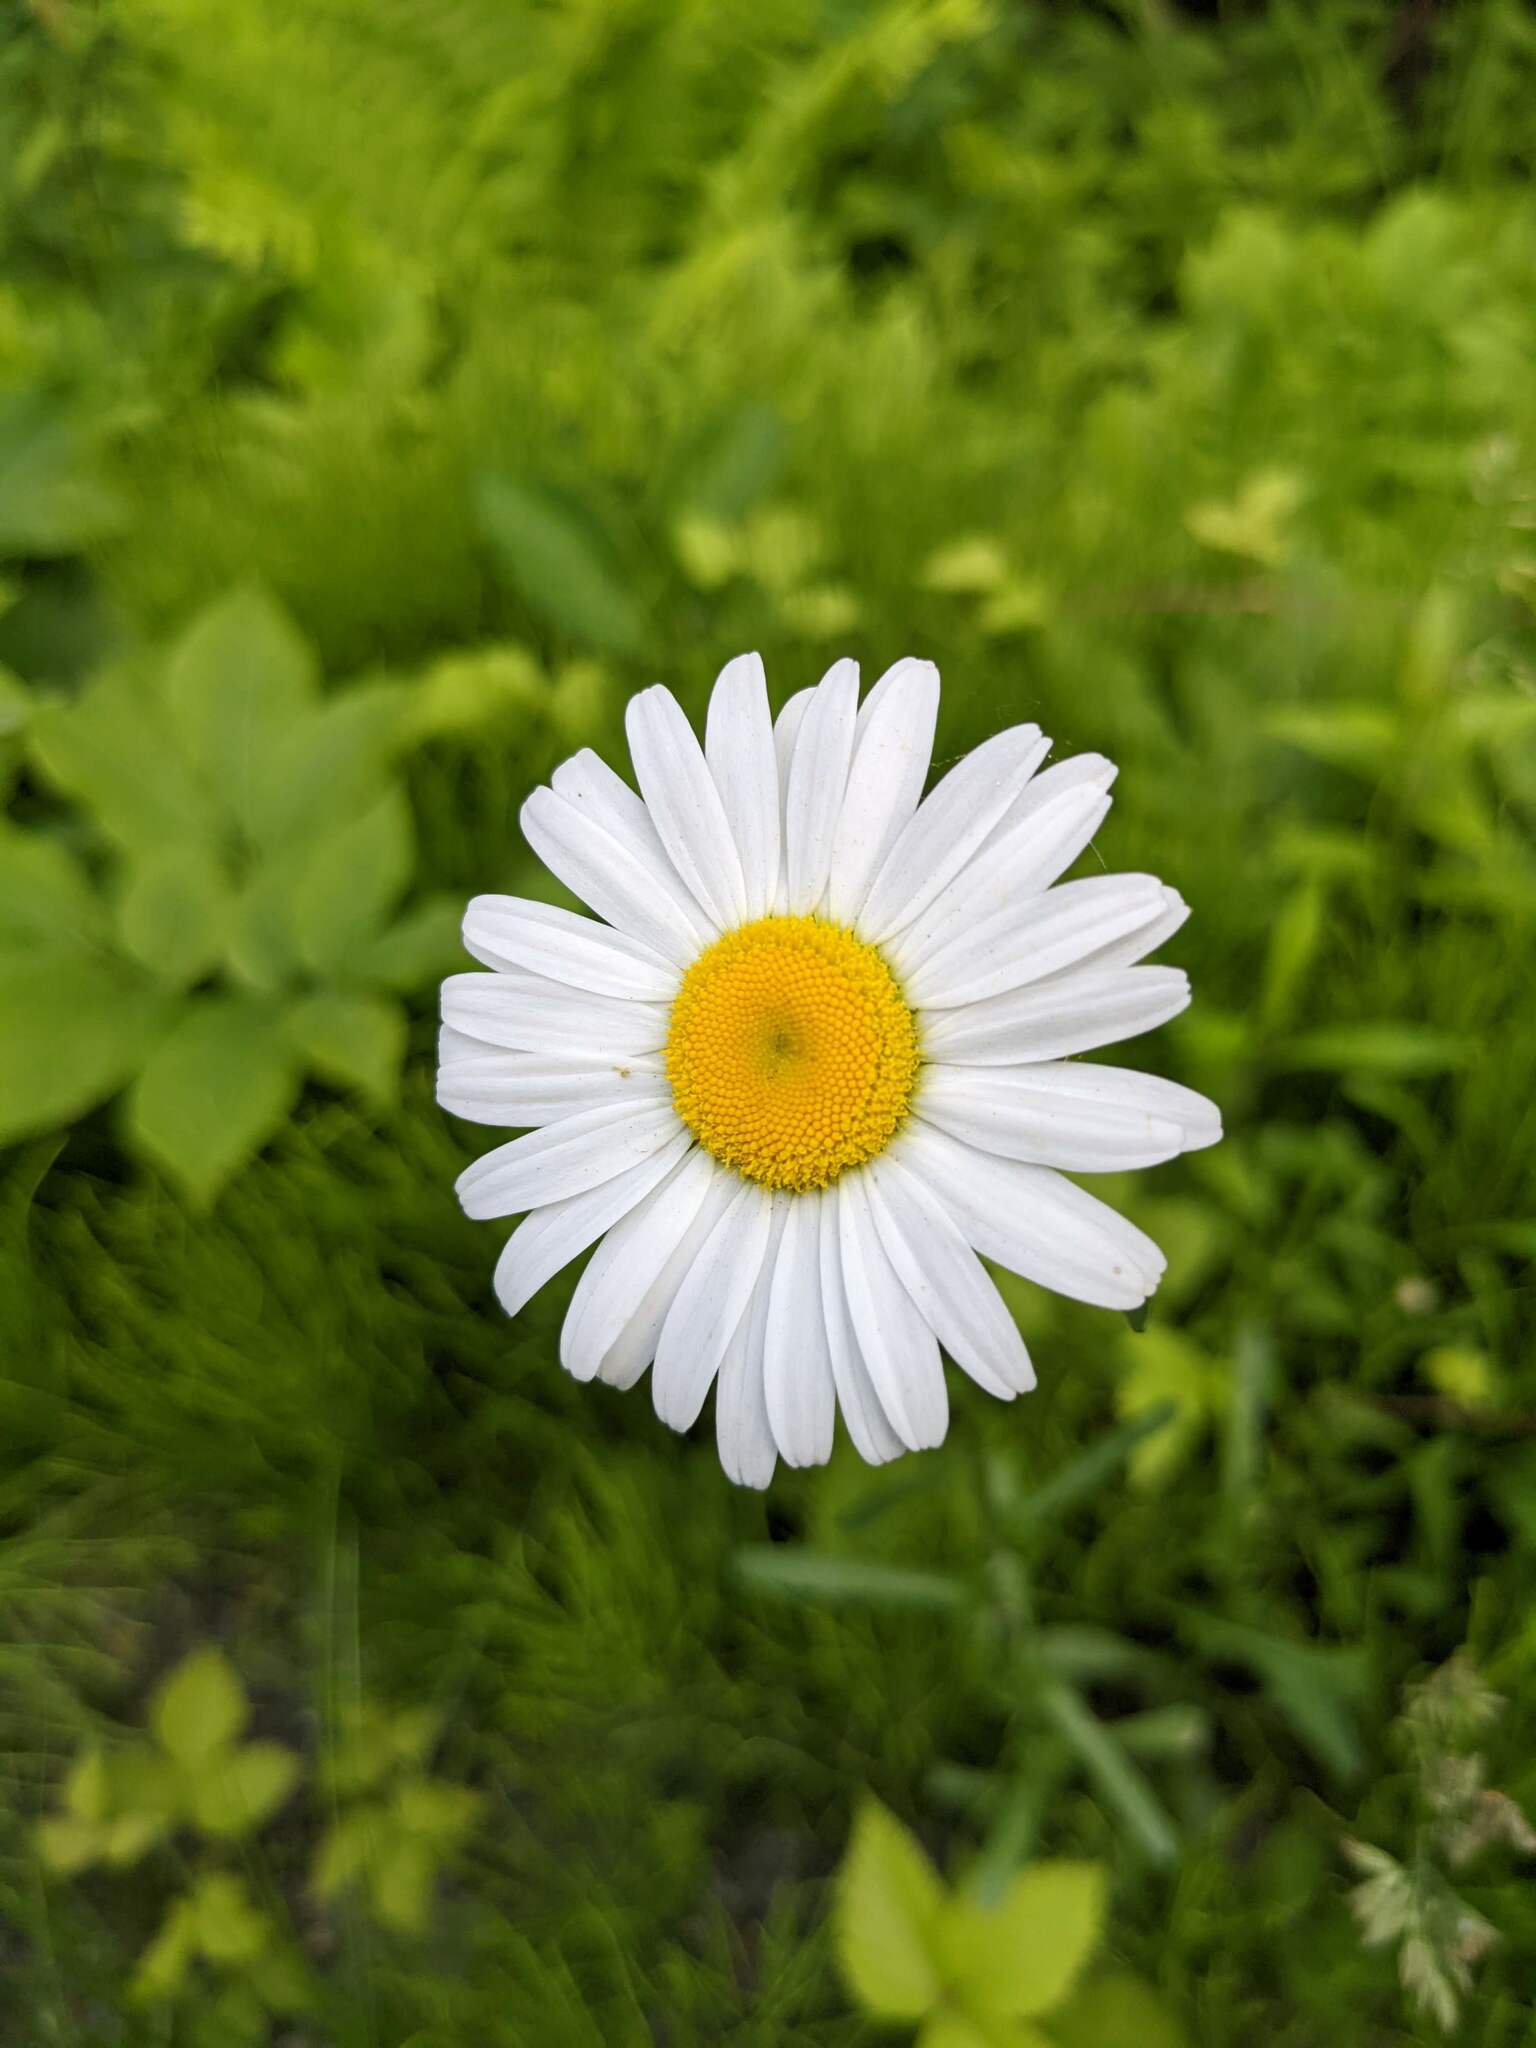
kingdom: Plantae
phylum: Tracheophyta
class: Magnoliopsida
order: Asterales
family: Asteraceae
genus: Leucanthemum
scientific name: Leucanthemum vulgare
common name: Oxeye daisy
